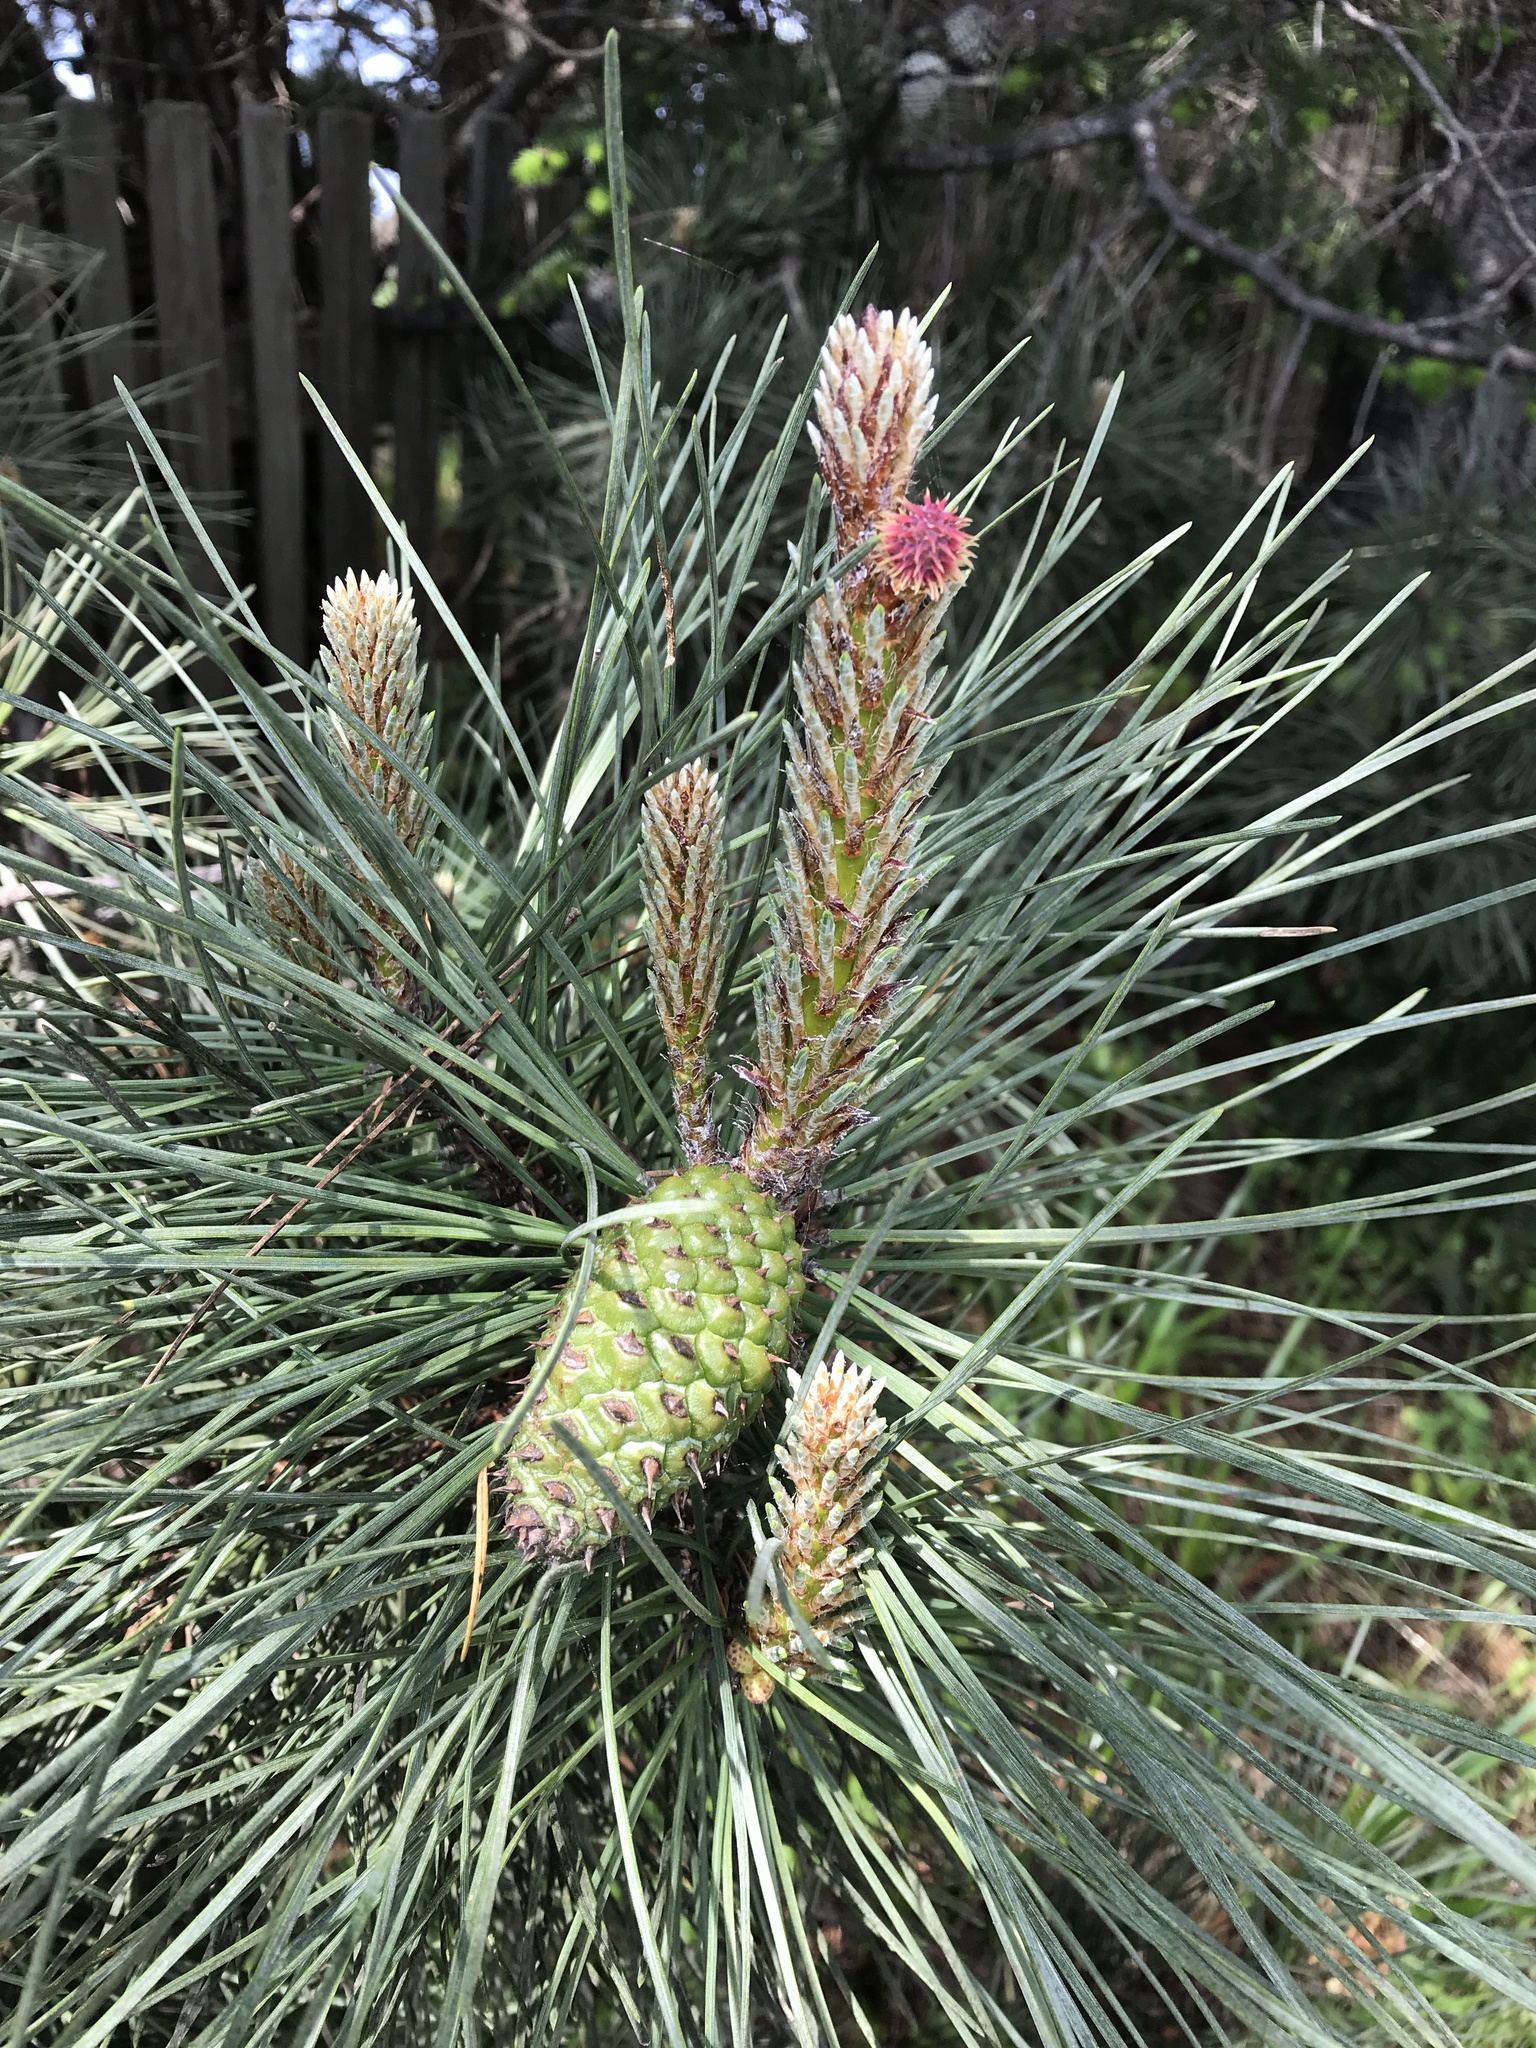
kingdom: Plantae
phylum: Tracheophyta
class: Pinopsida
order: Pinales
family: Pinaceae
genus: Pinus
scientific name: Pinus radiata
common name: Monterey pine
